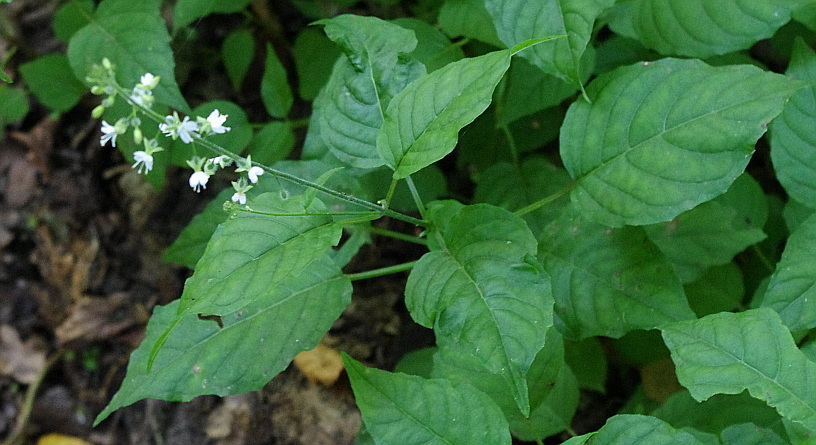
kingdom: Plantae
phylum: Tracheophyta
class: Magnoliopsida
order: Myrtales
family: Onagraceae
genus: Circaea
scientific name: Circaea lutetiana
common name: Enchanter's-nightshade
